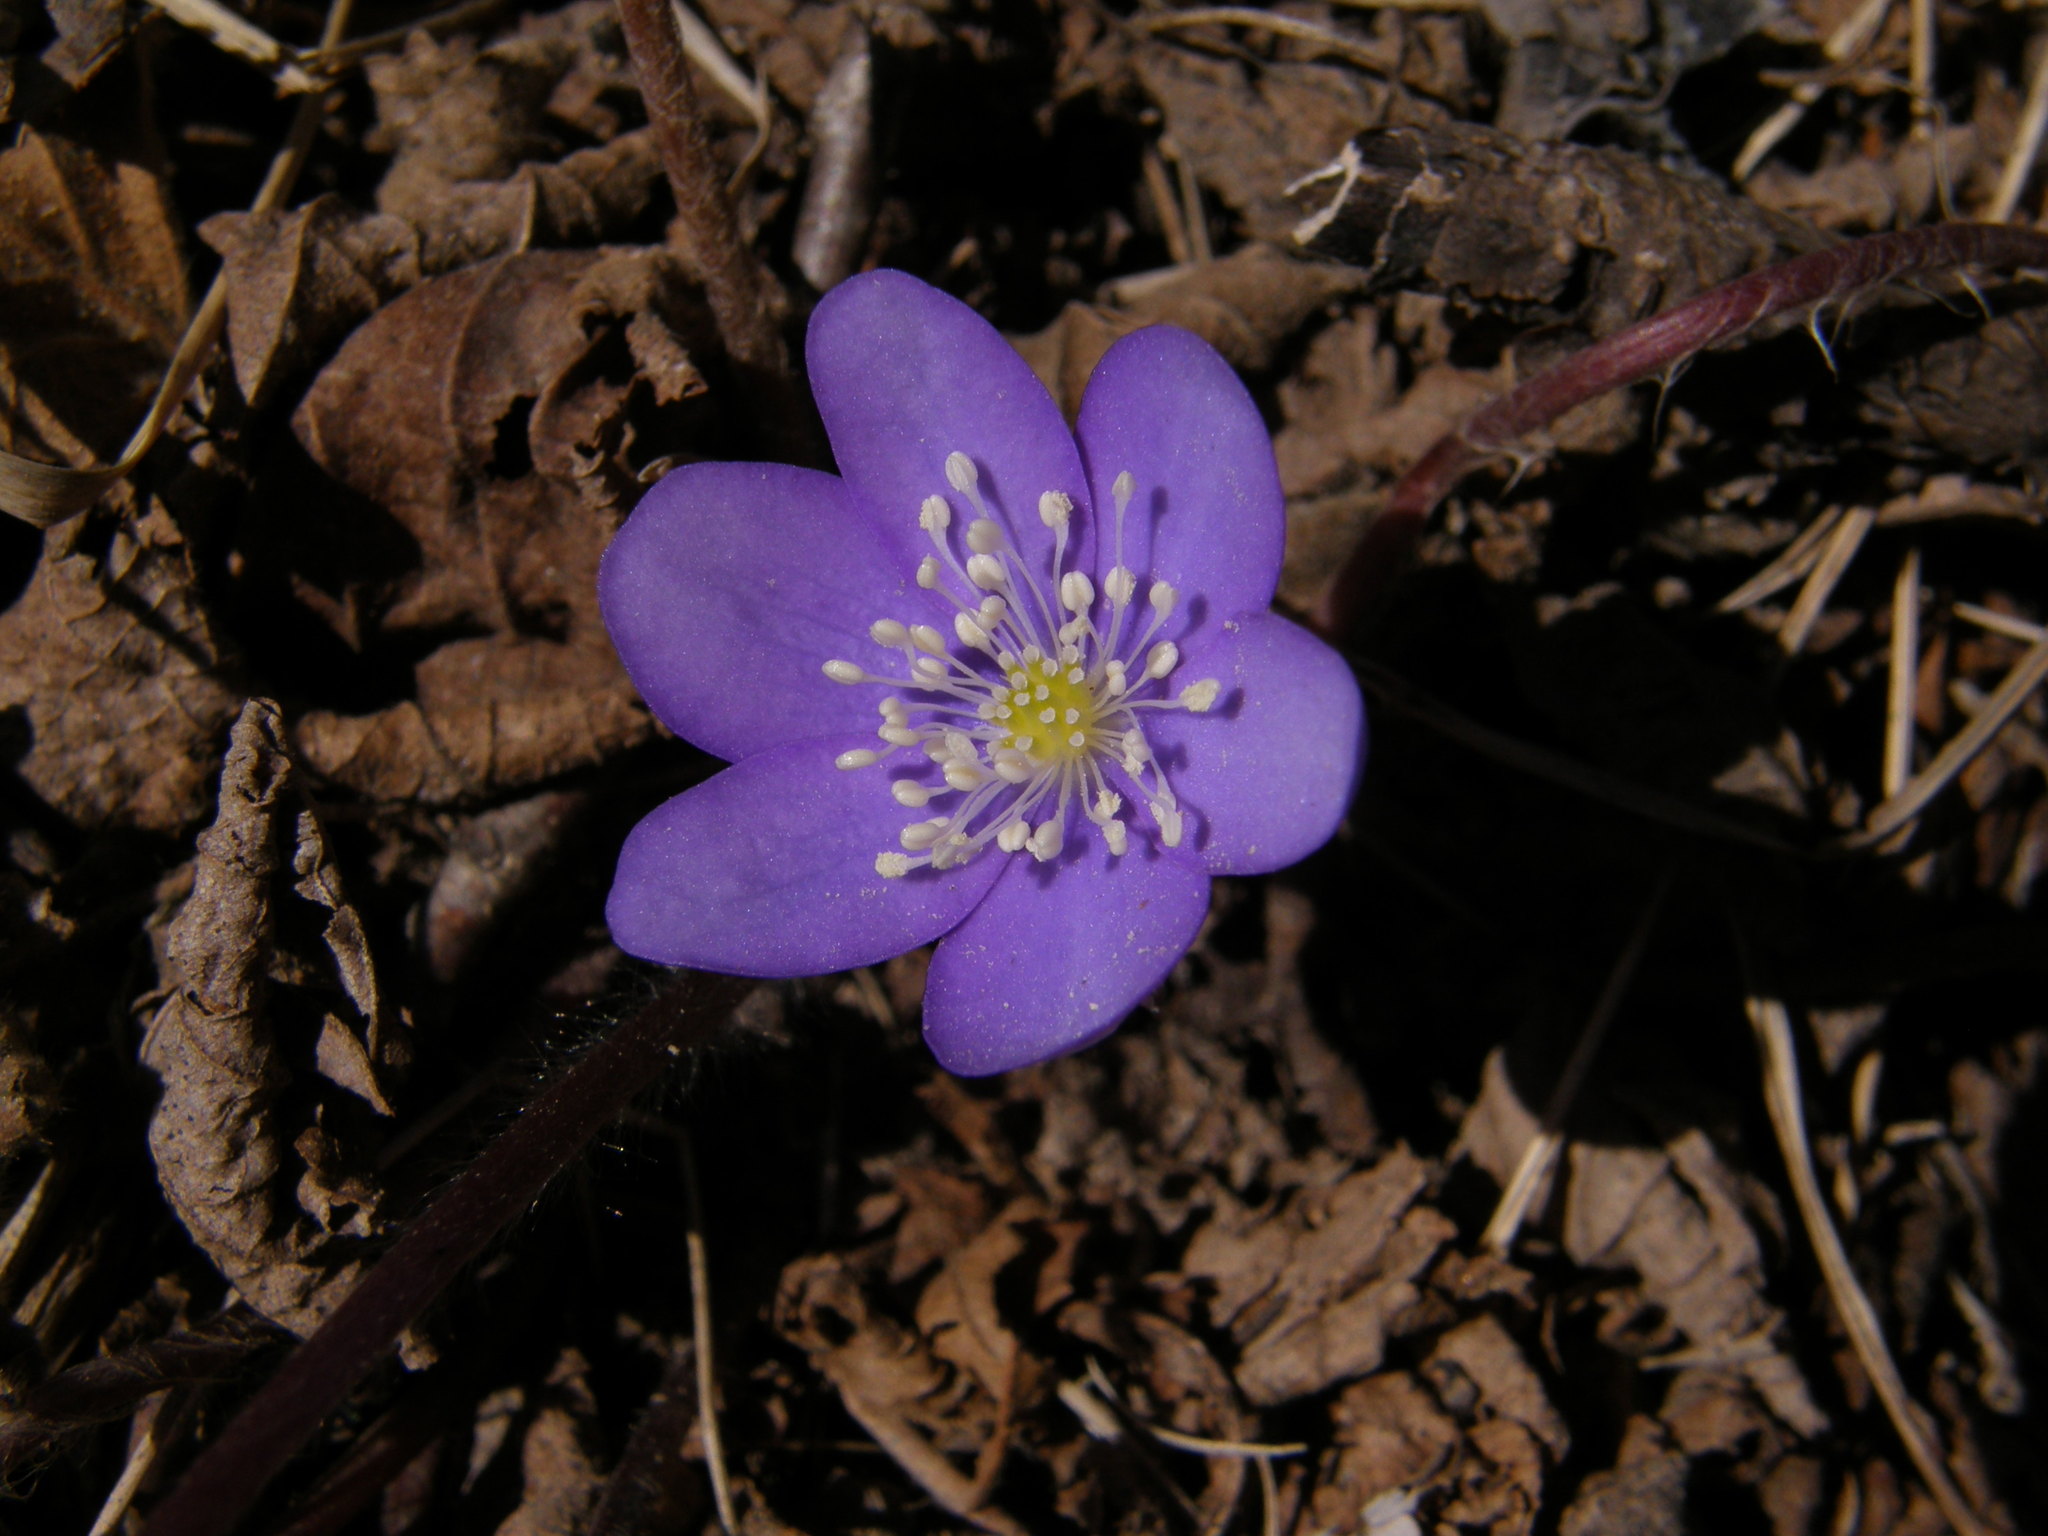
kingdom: Plantae
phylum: Tracheophyta
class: Magnoliopsida
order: Ranunculales
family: Ranunculaceae
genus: Hepatica
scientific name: Hepatica nobilis
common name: Liverleaf
